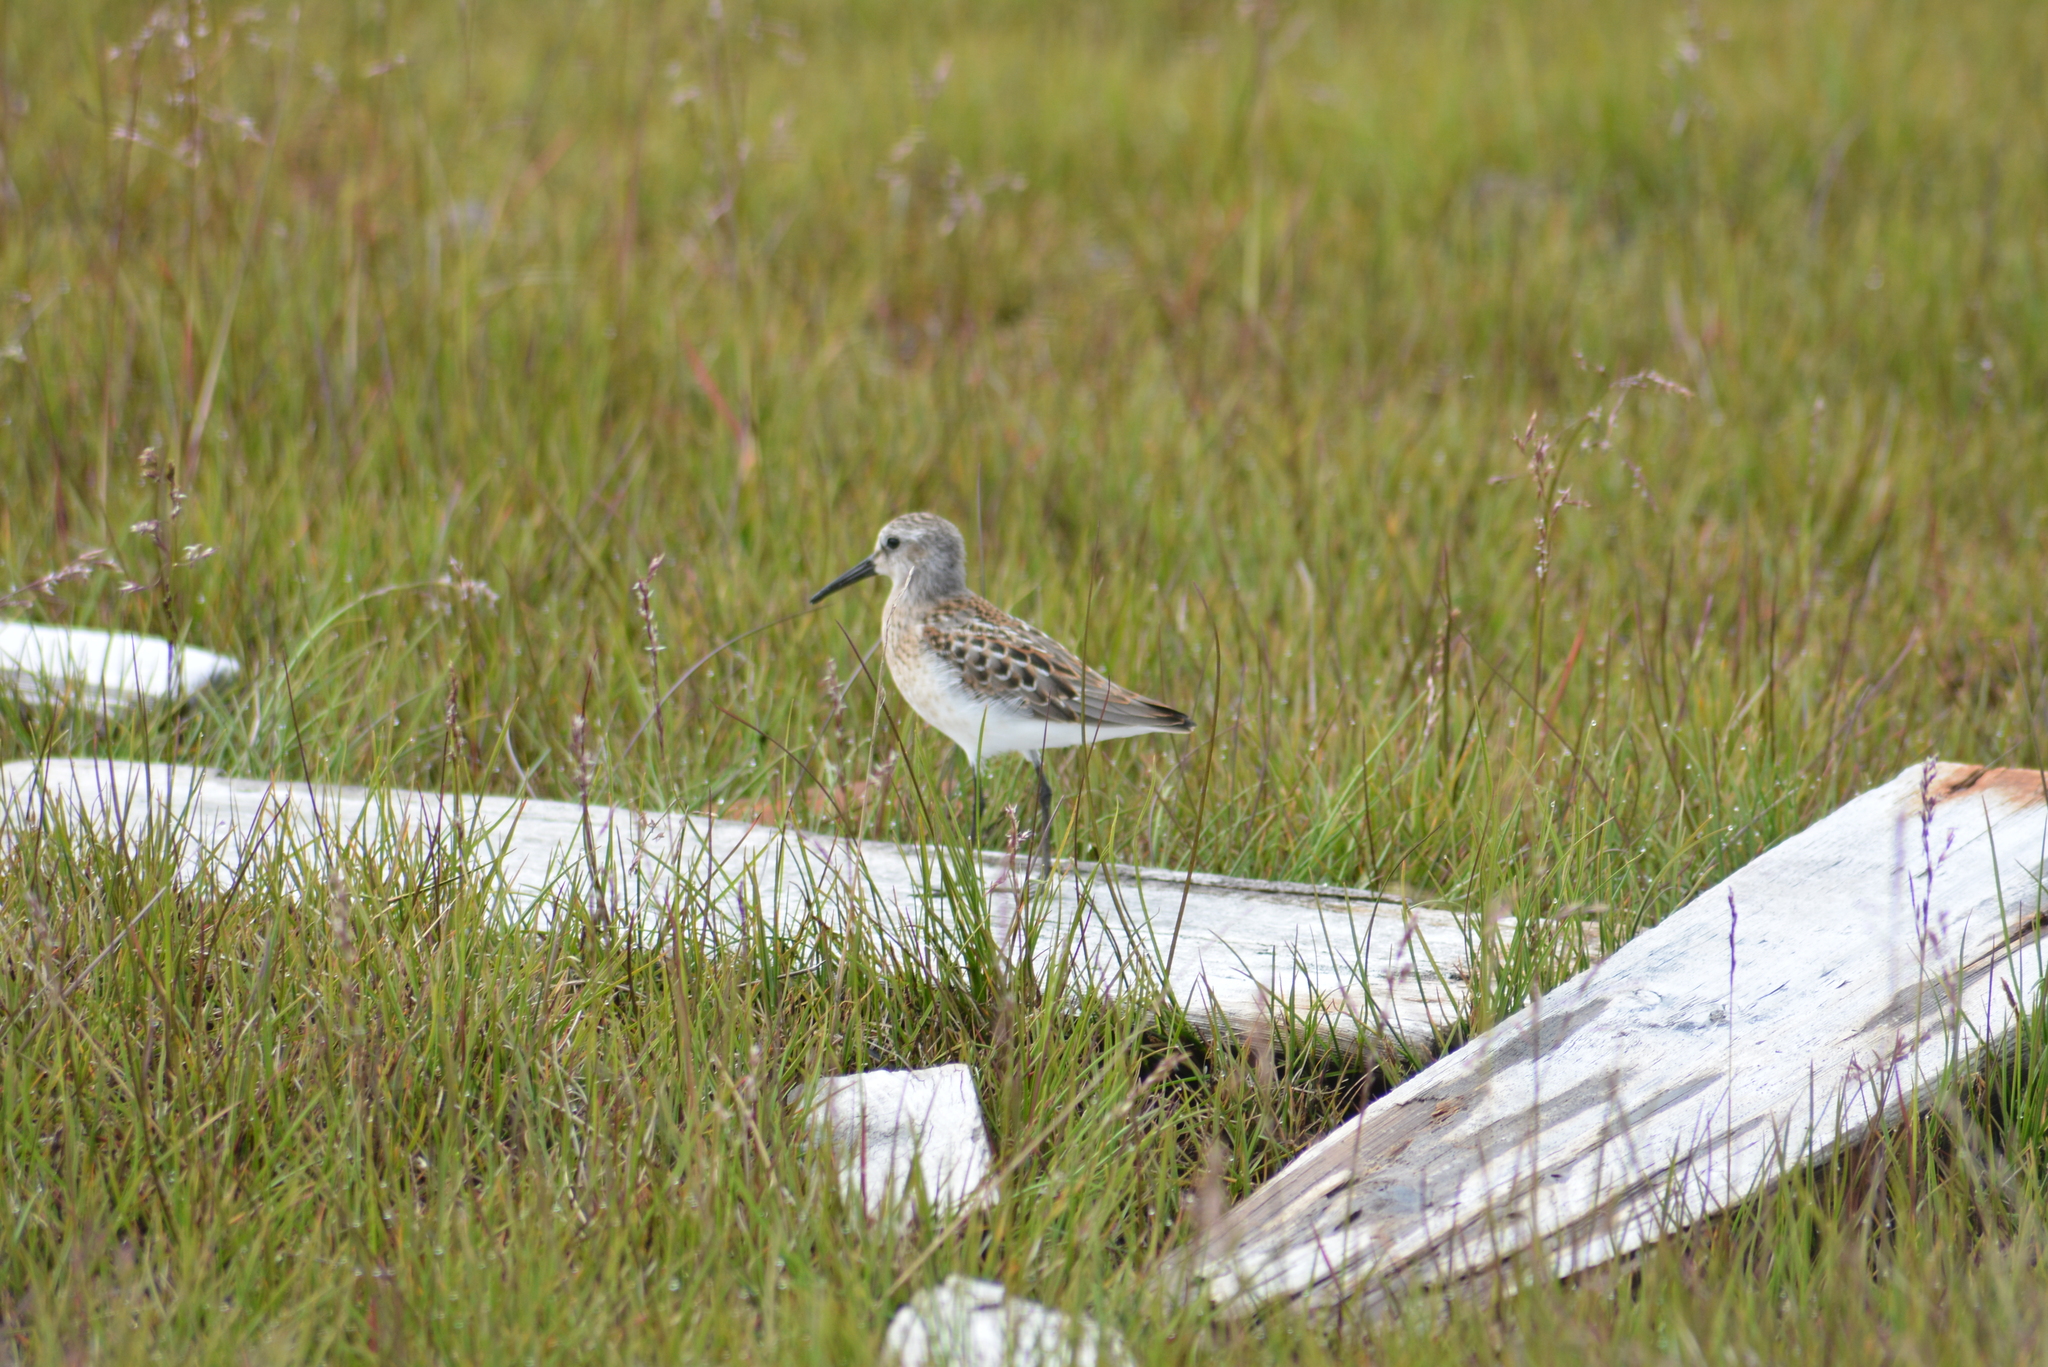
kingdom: Animalia
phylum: Chordata
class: Aves
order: Charadriiformes
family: Scolopacidae
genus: Calidris
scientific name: Calidris mauri
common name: Western sandpiper
